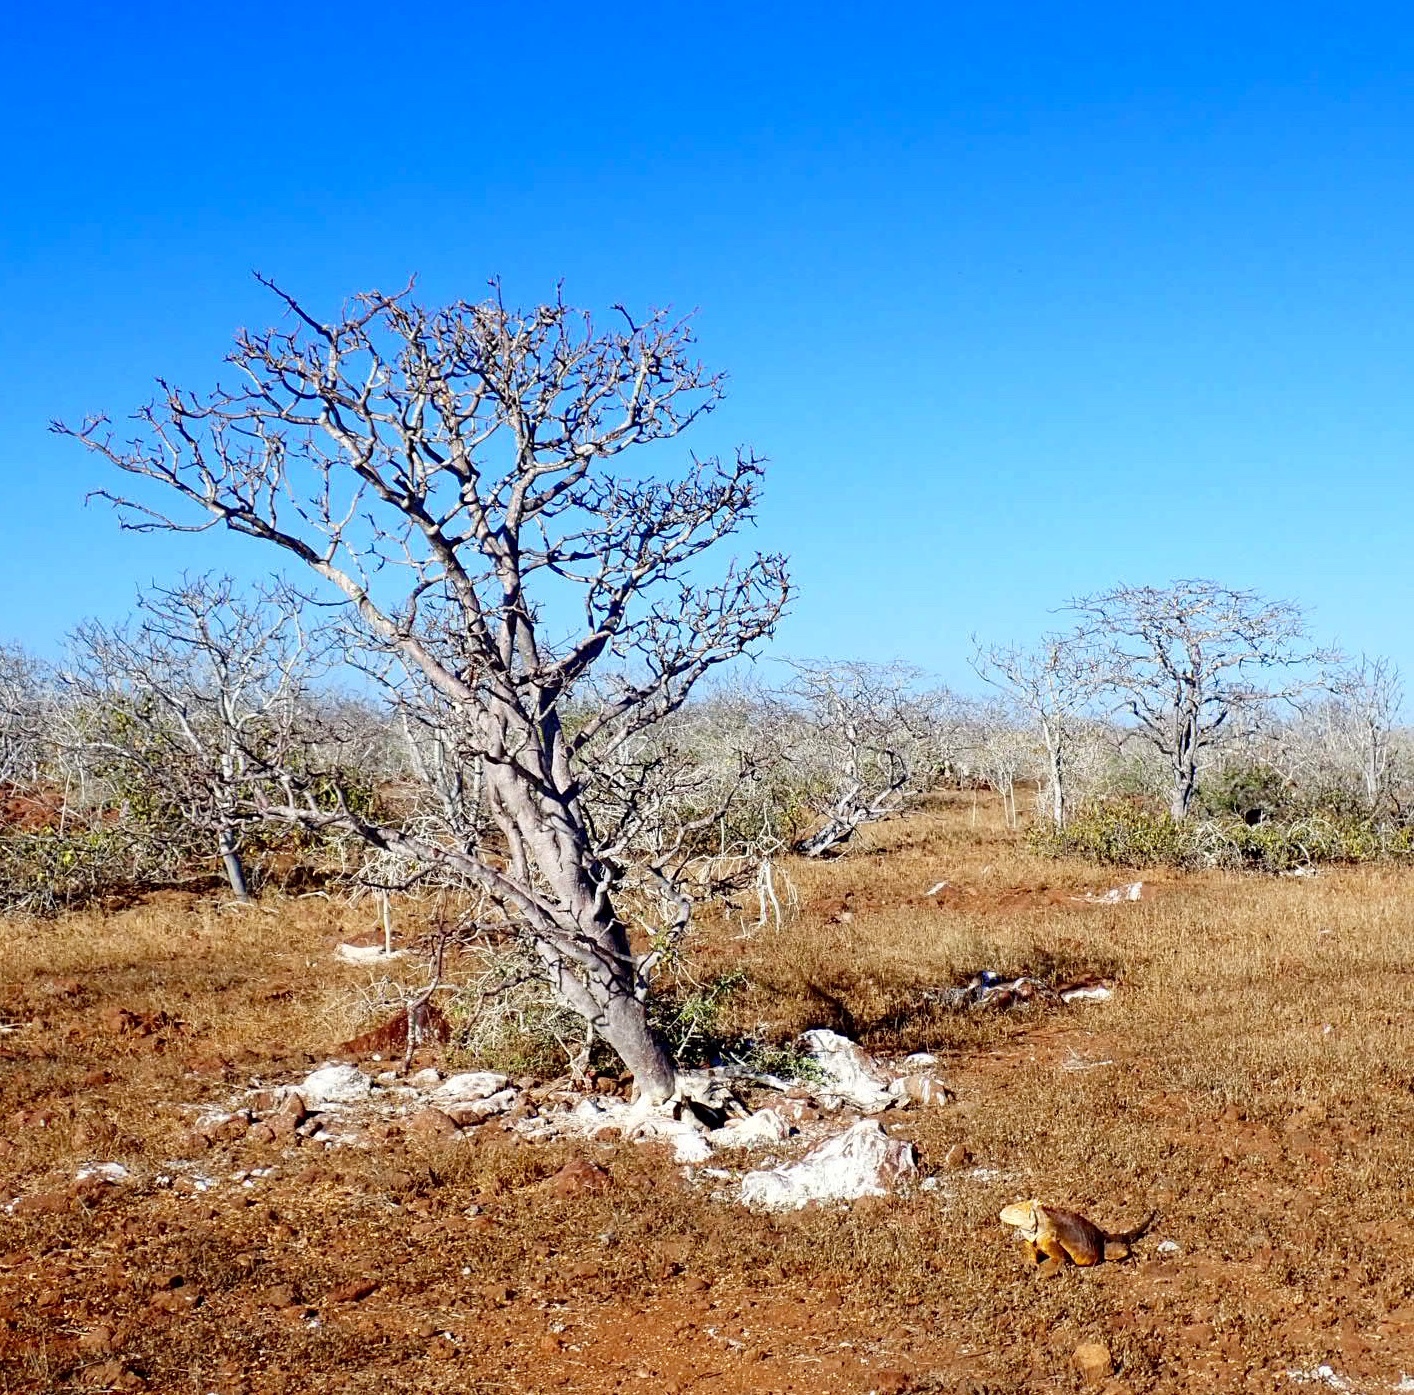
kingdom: Plantae
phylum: Tracheophyta
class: Magnoliopsida
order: Sapindales
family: Burseraceae
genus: Bursera
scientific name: Bursera graveolens
